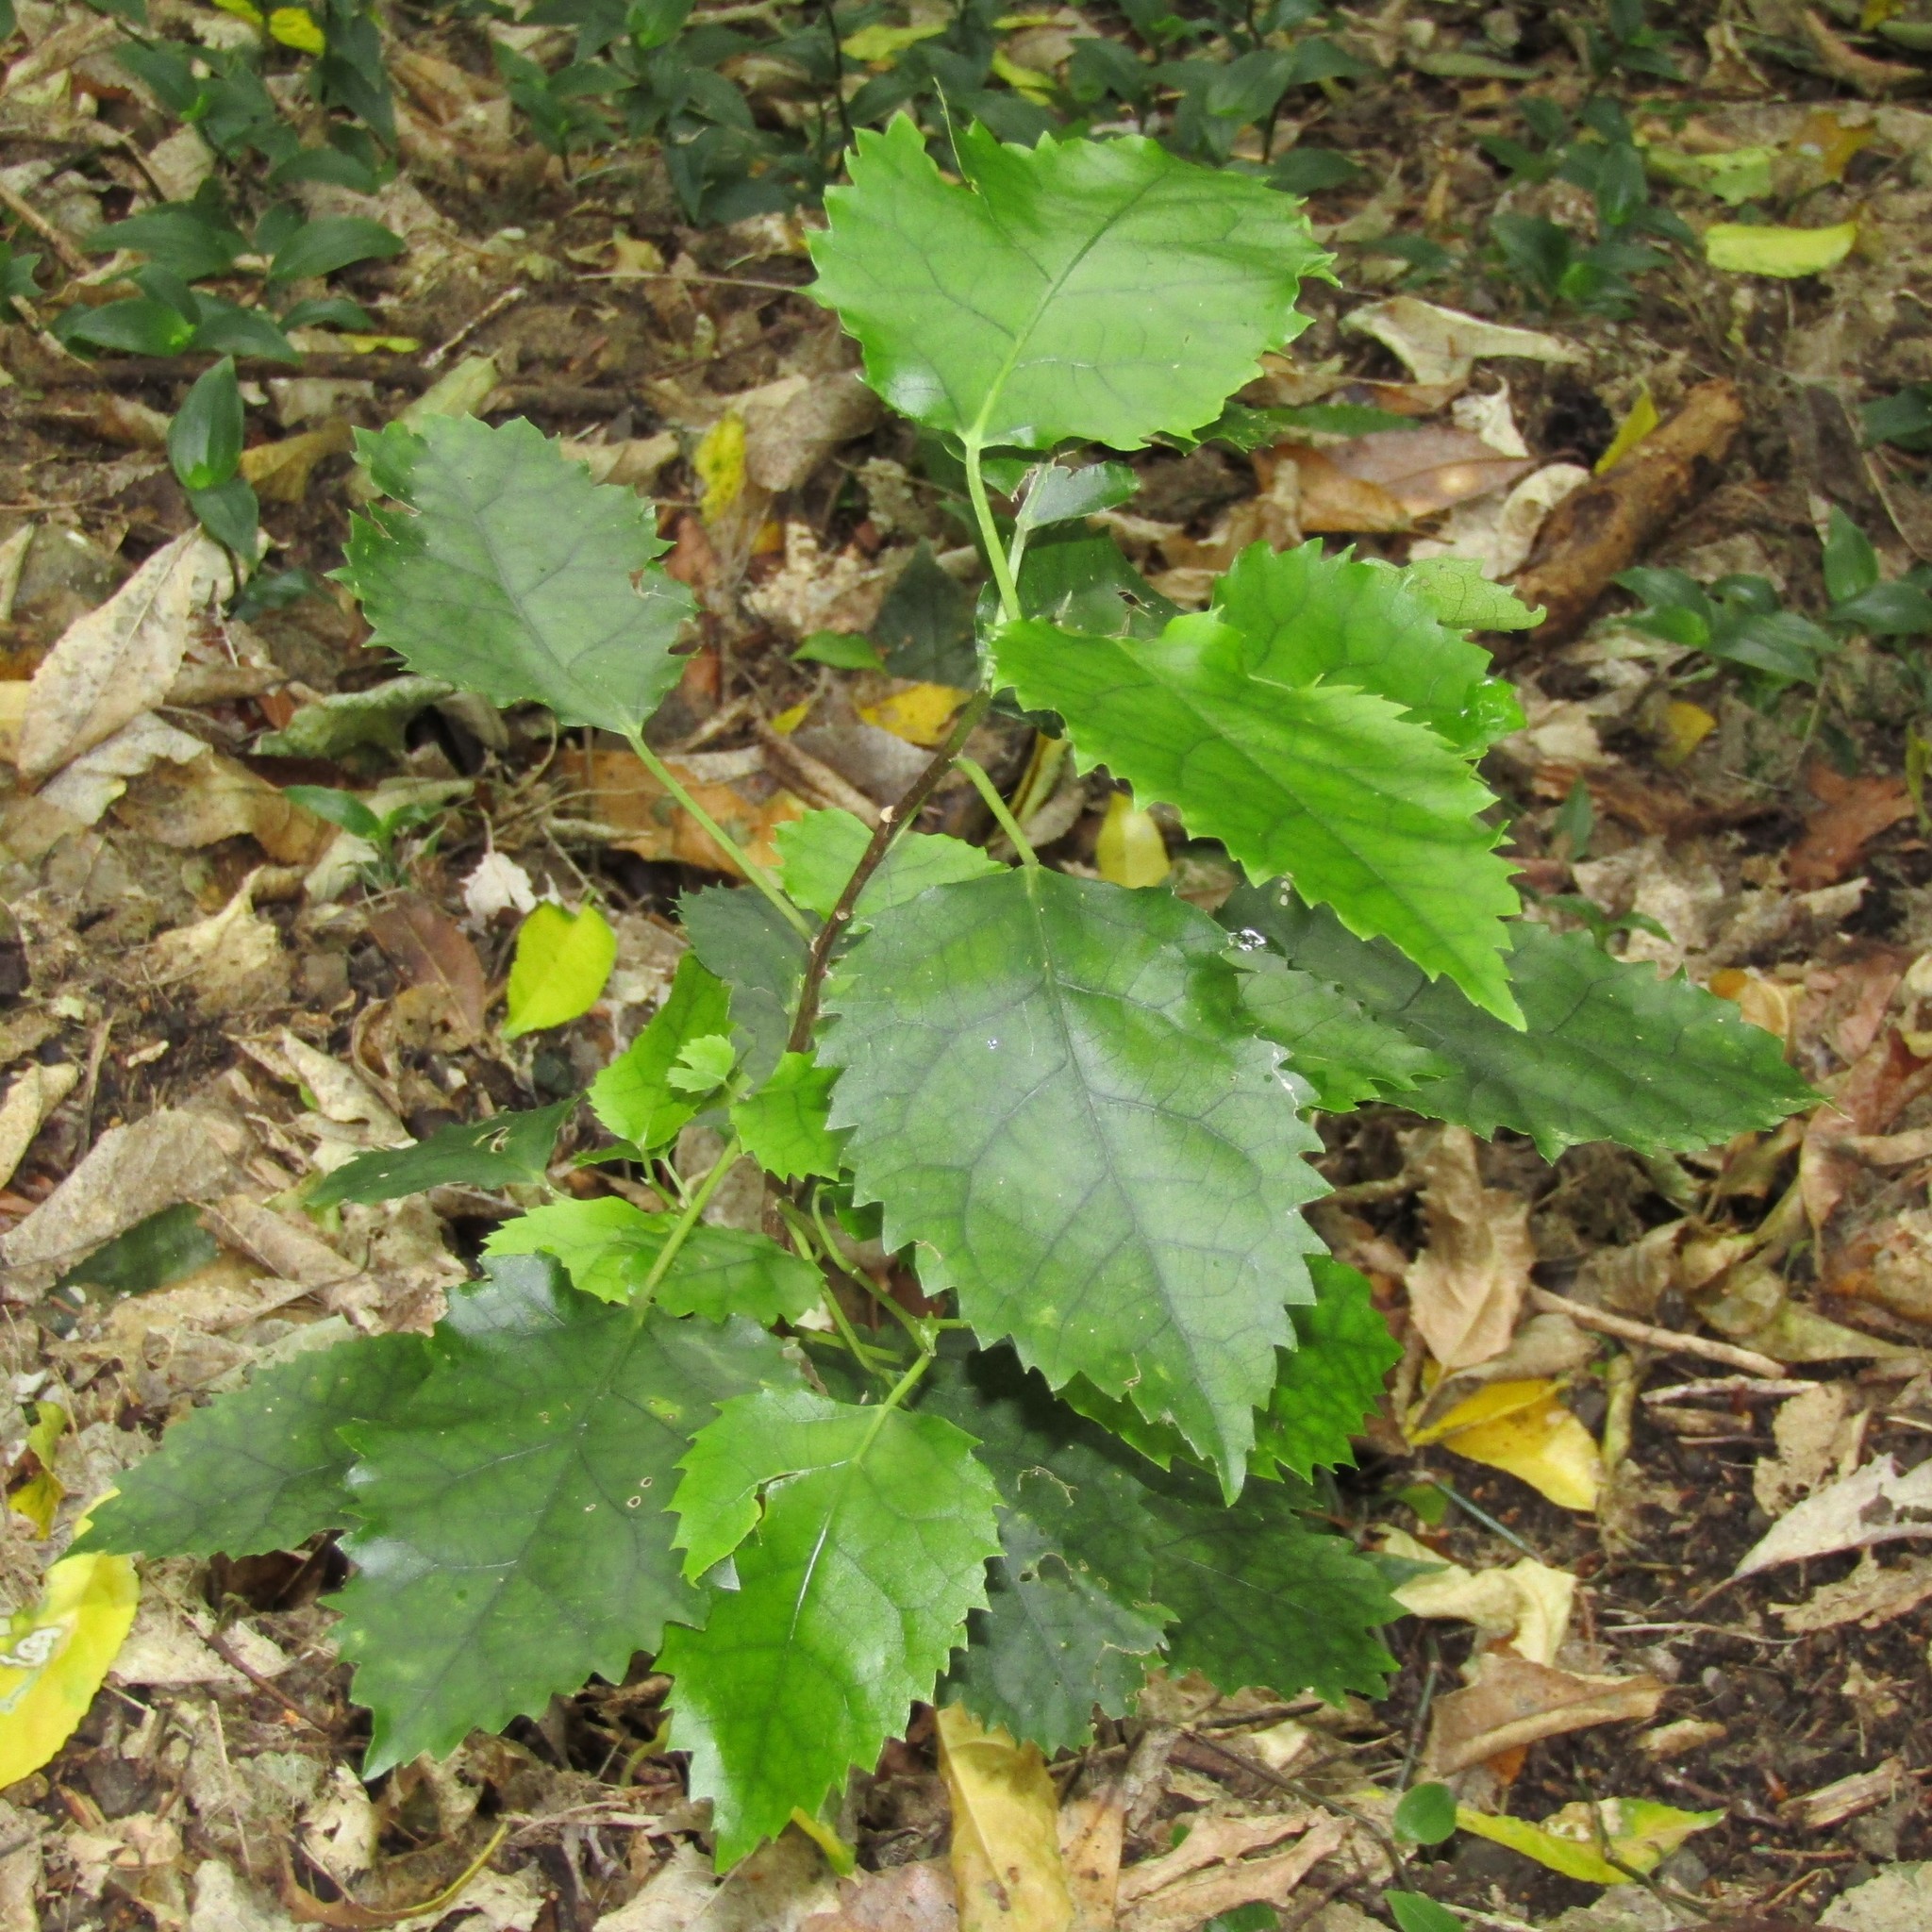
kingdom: Plantae
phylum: Tracheophyta
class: Magnoliopsida
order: Malvales
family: Malvaceae
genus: Hoheria
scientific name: Hoheria populnea
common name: Lacebark
